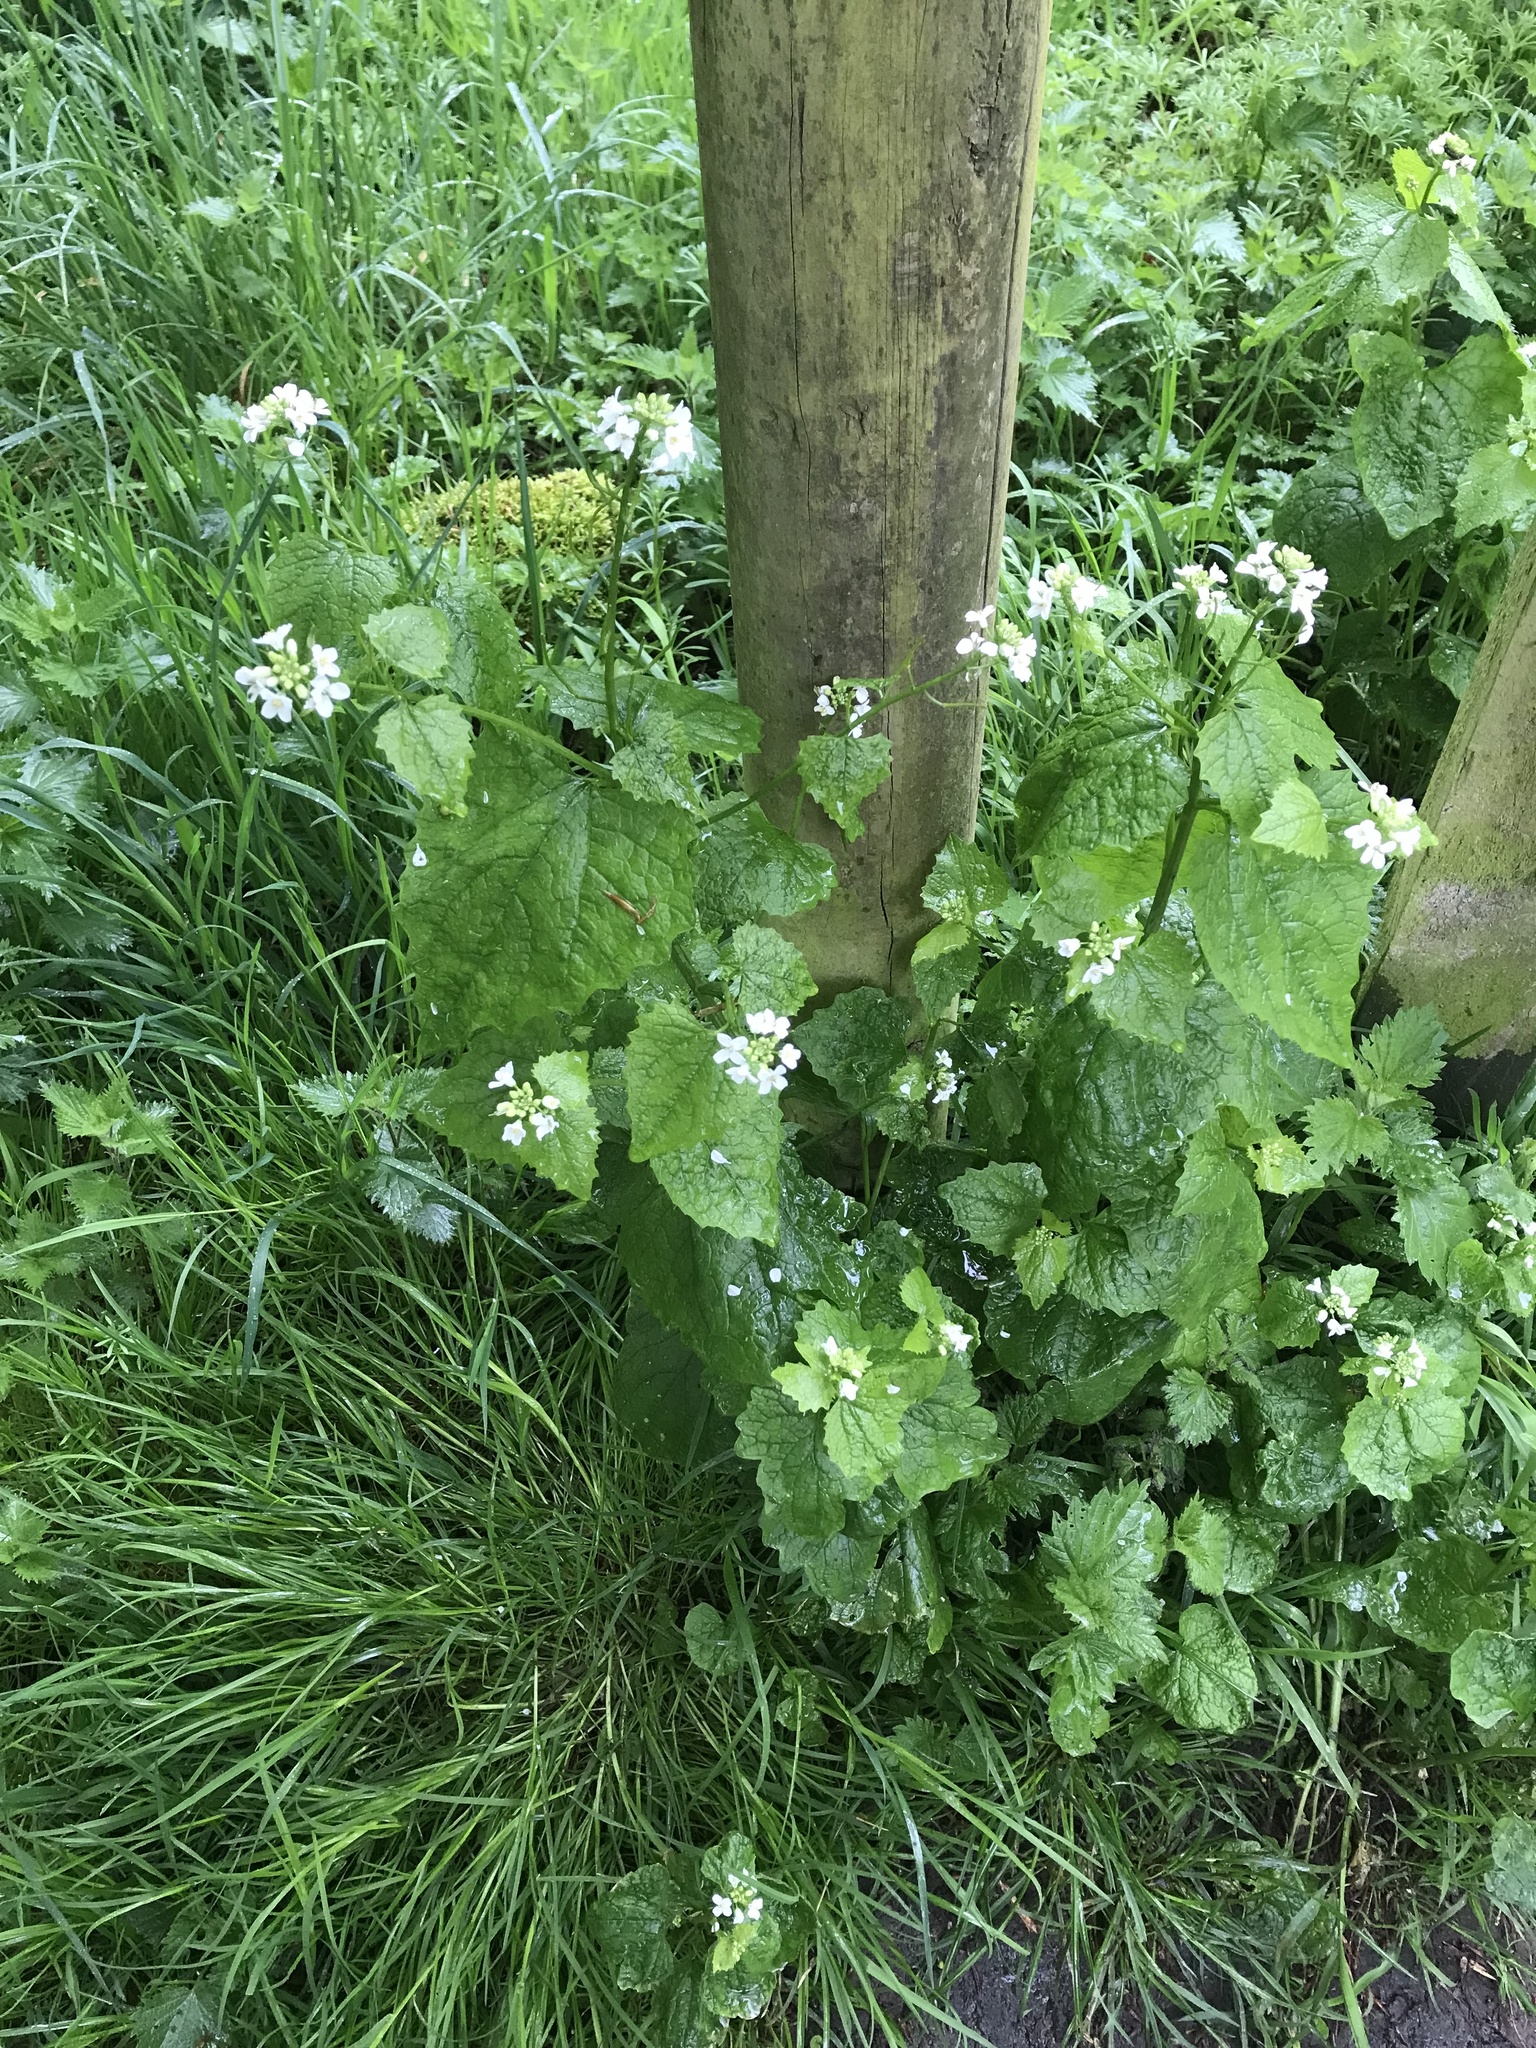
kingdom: Plantae
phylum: Tracheophyta
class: Magnoliopsida
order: Brassicales
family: Brassicaceae
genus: Alliaria
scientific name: Alliaria petiolata
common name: Garlic mustard
